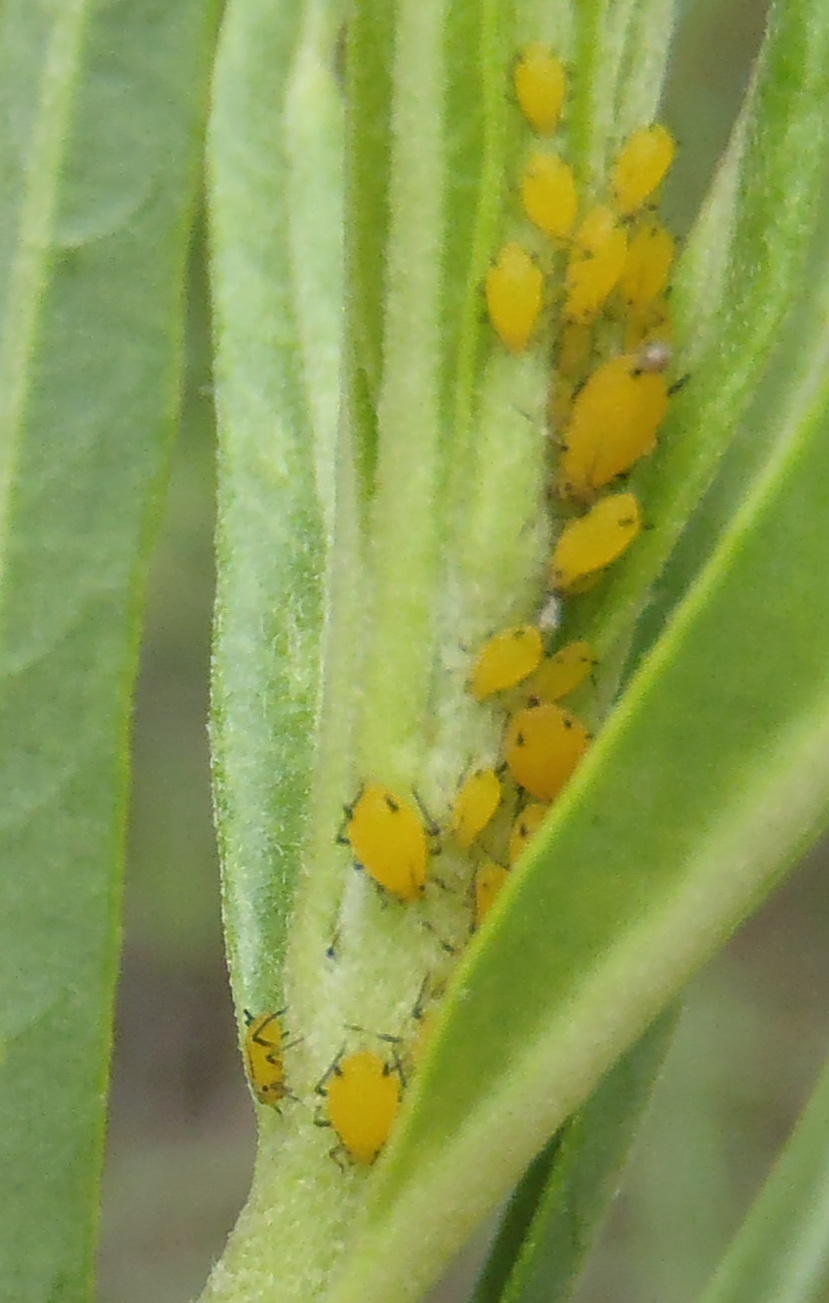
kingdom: Animalia
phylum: Arthropoda
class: Insecta
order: Hemiptera
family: Aphididae
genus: Aphis
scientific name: Aphis nerii
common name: Oleander aphid
